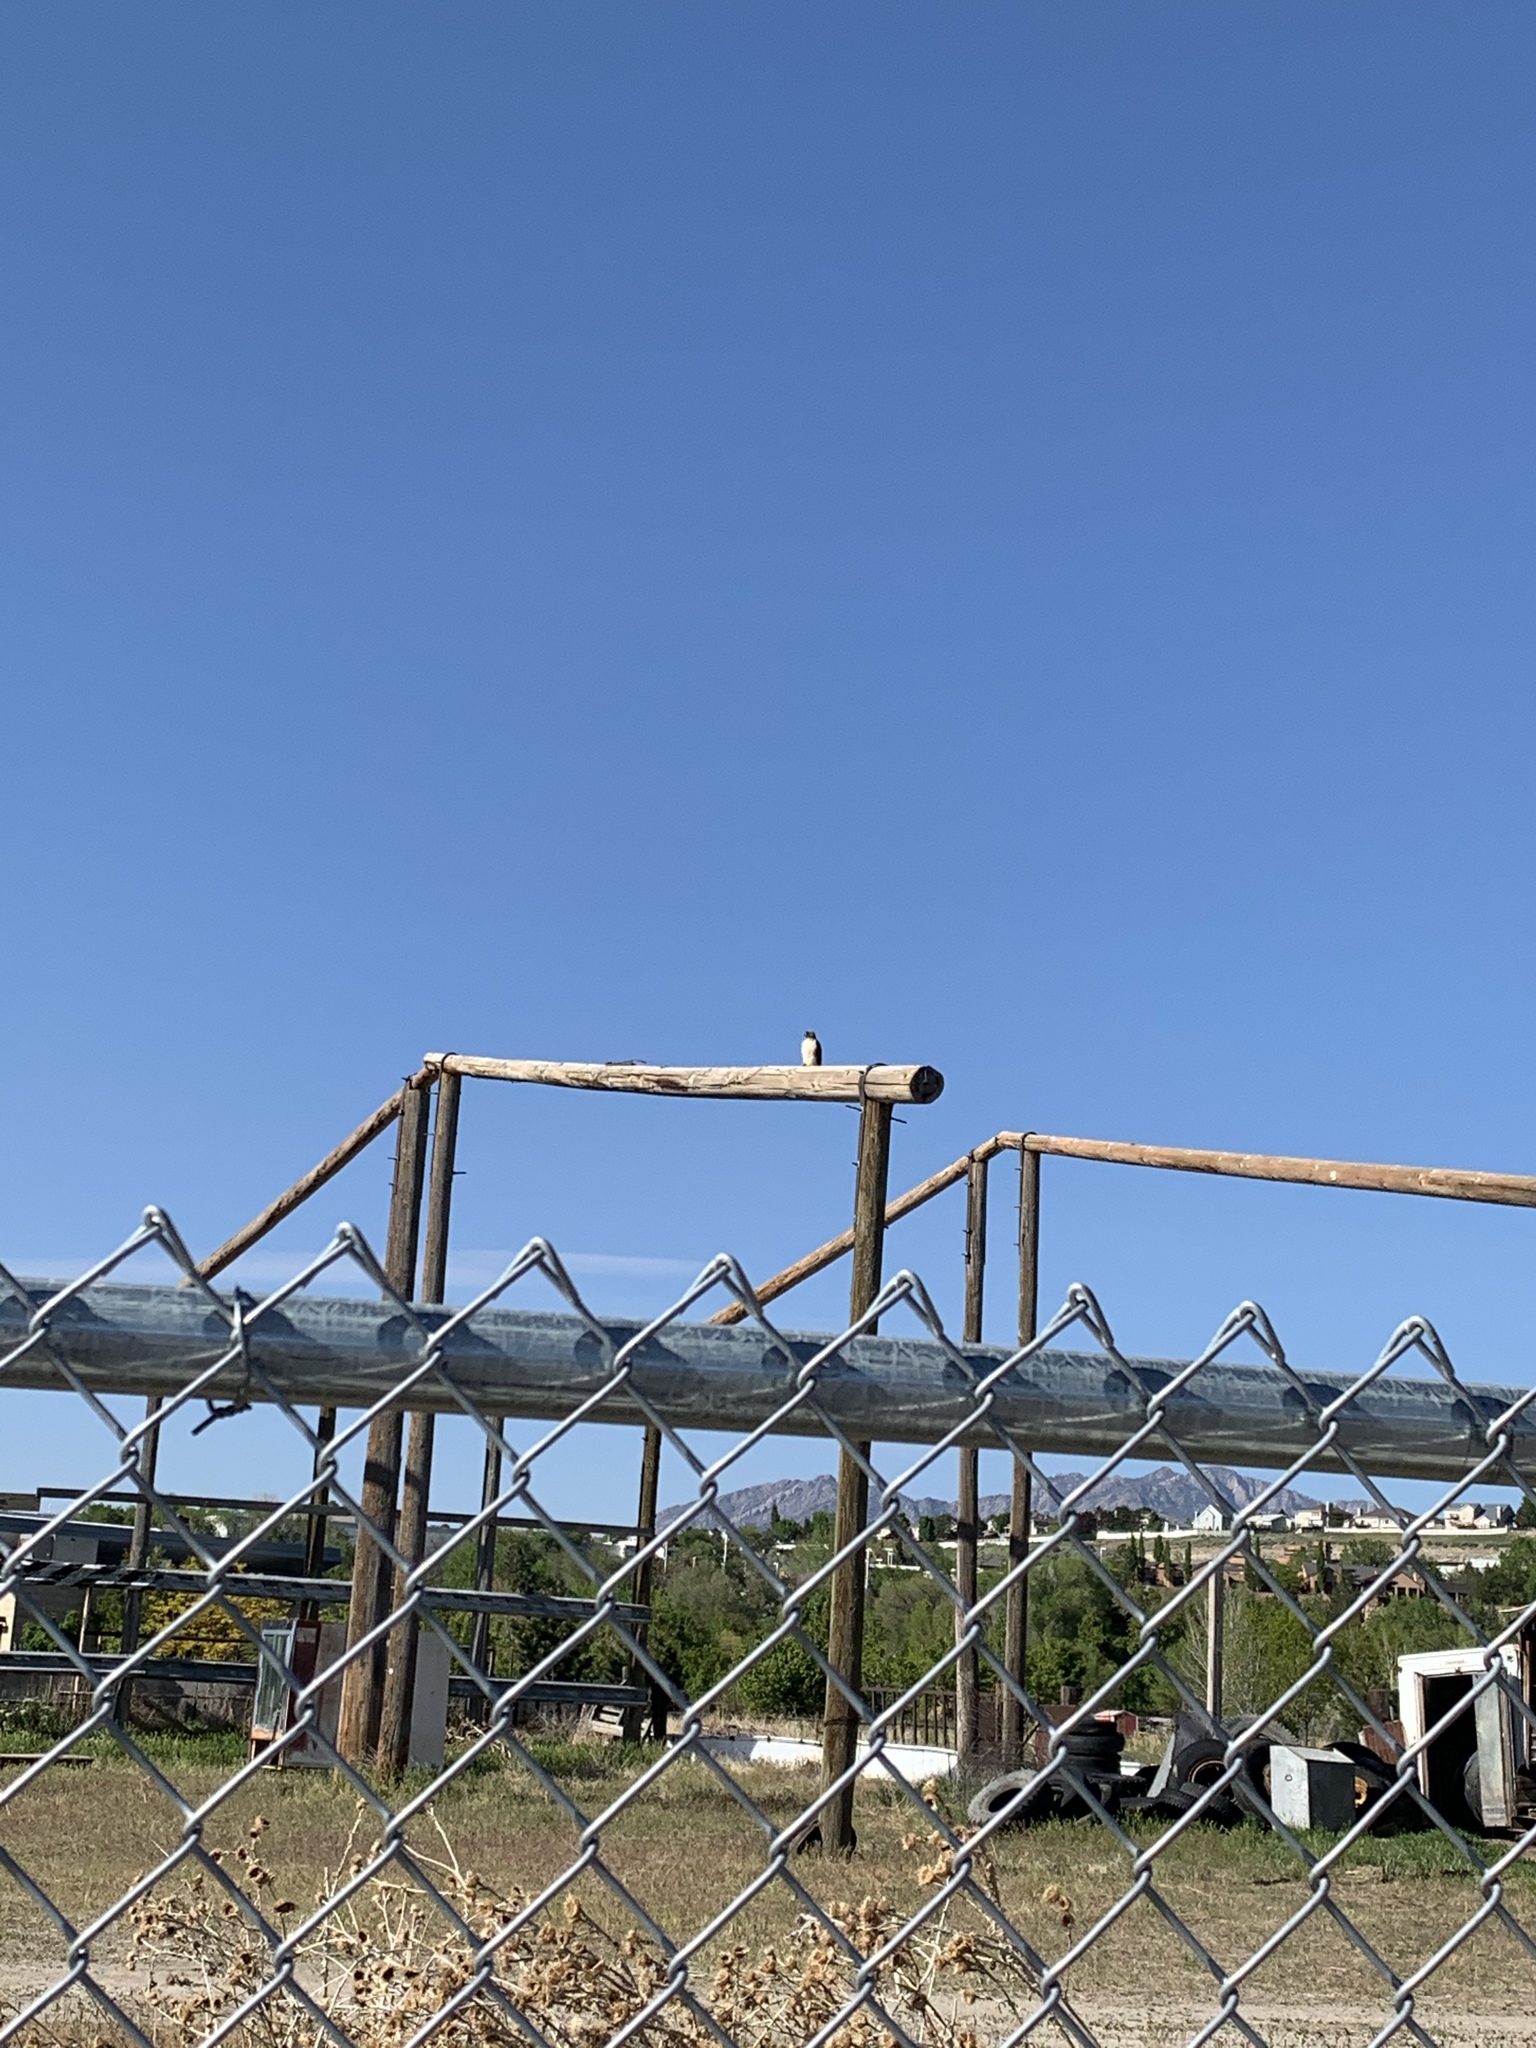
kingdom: Animalia
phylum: Chordata
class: Aves
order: Accipitriformes
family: Accipitridae
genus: Buteo
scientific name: Buteo jamaicensis
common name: Red-tailed hawk
